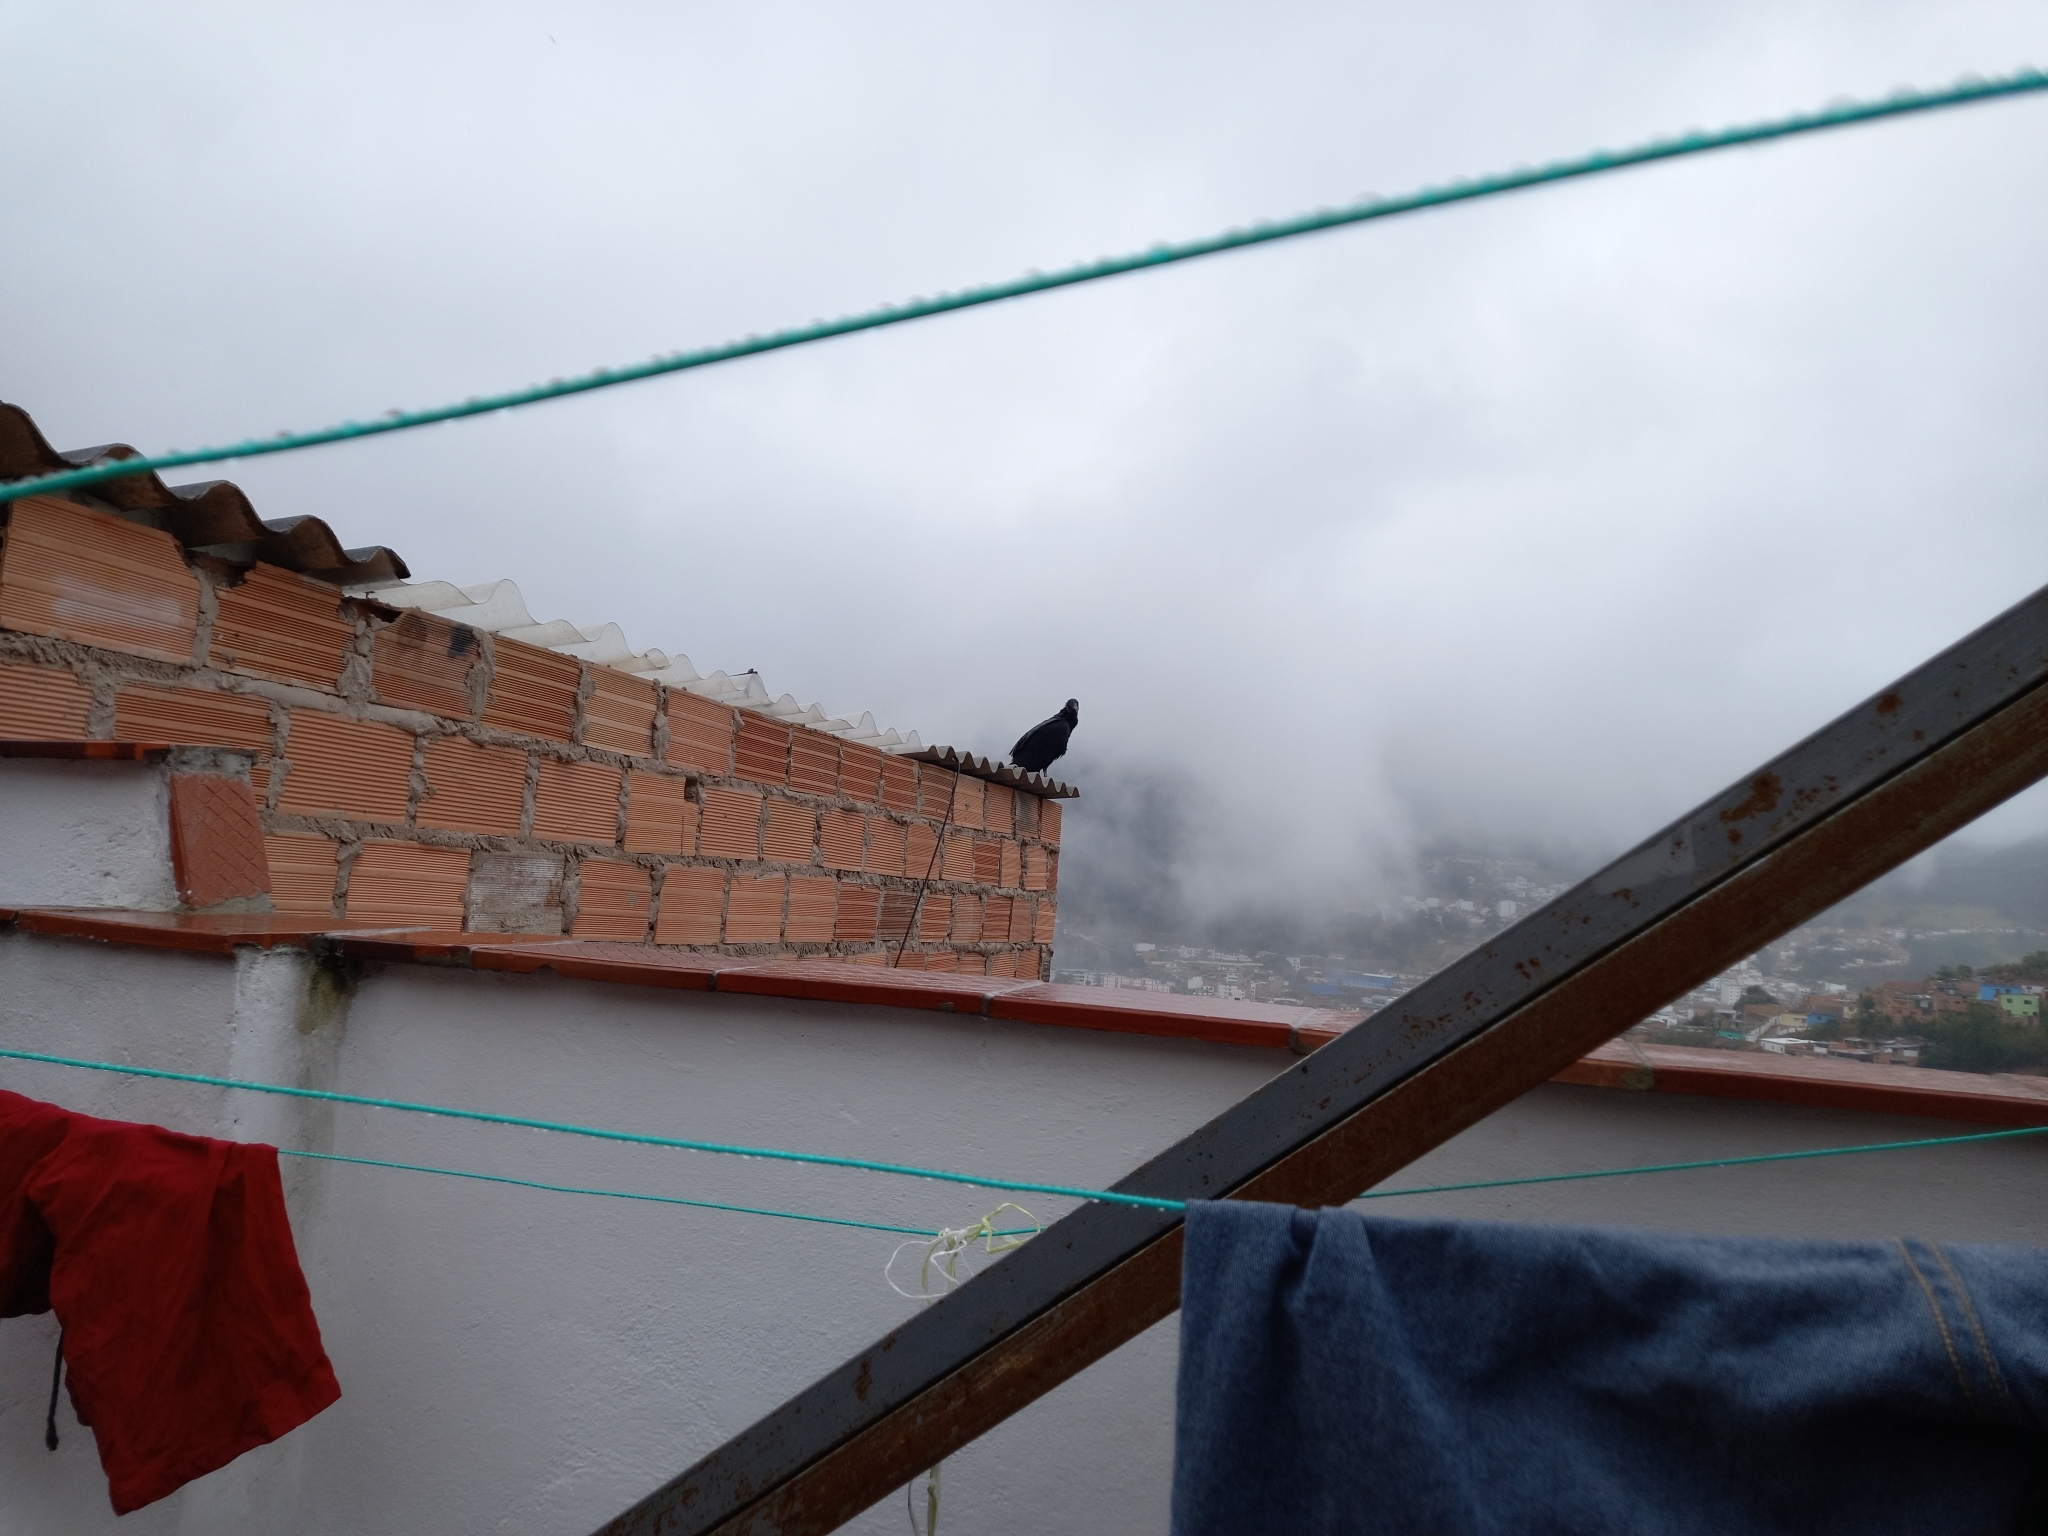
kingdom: Animalia
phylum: Chordata
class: Aves
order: Accipitriformes
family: Cathartidae
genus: Coragyps
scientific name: Coragyps atratus
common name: Black vulture
